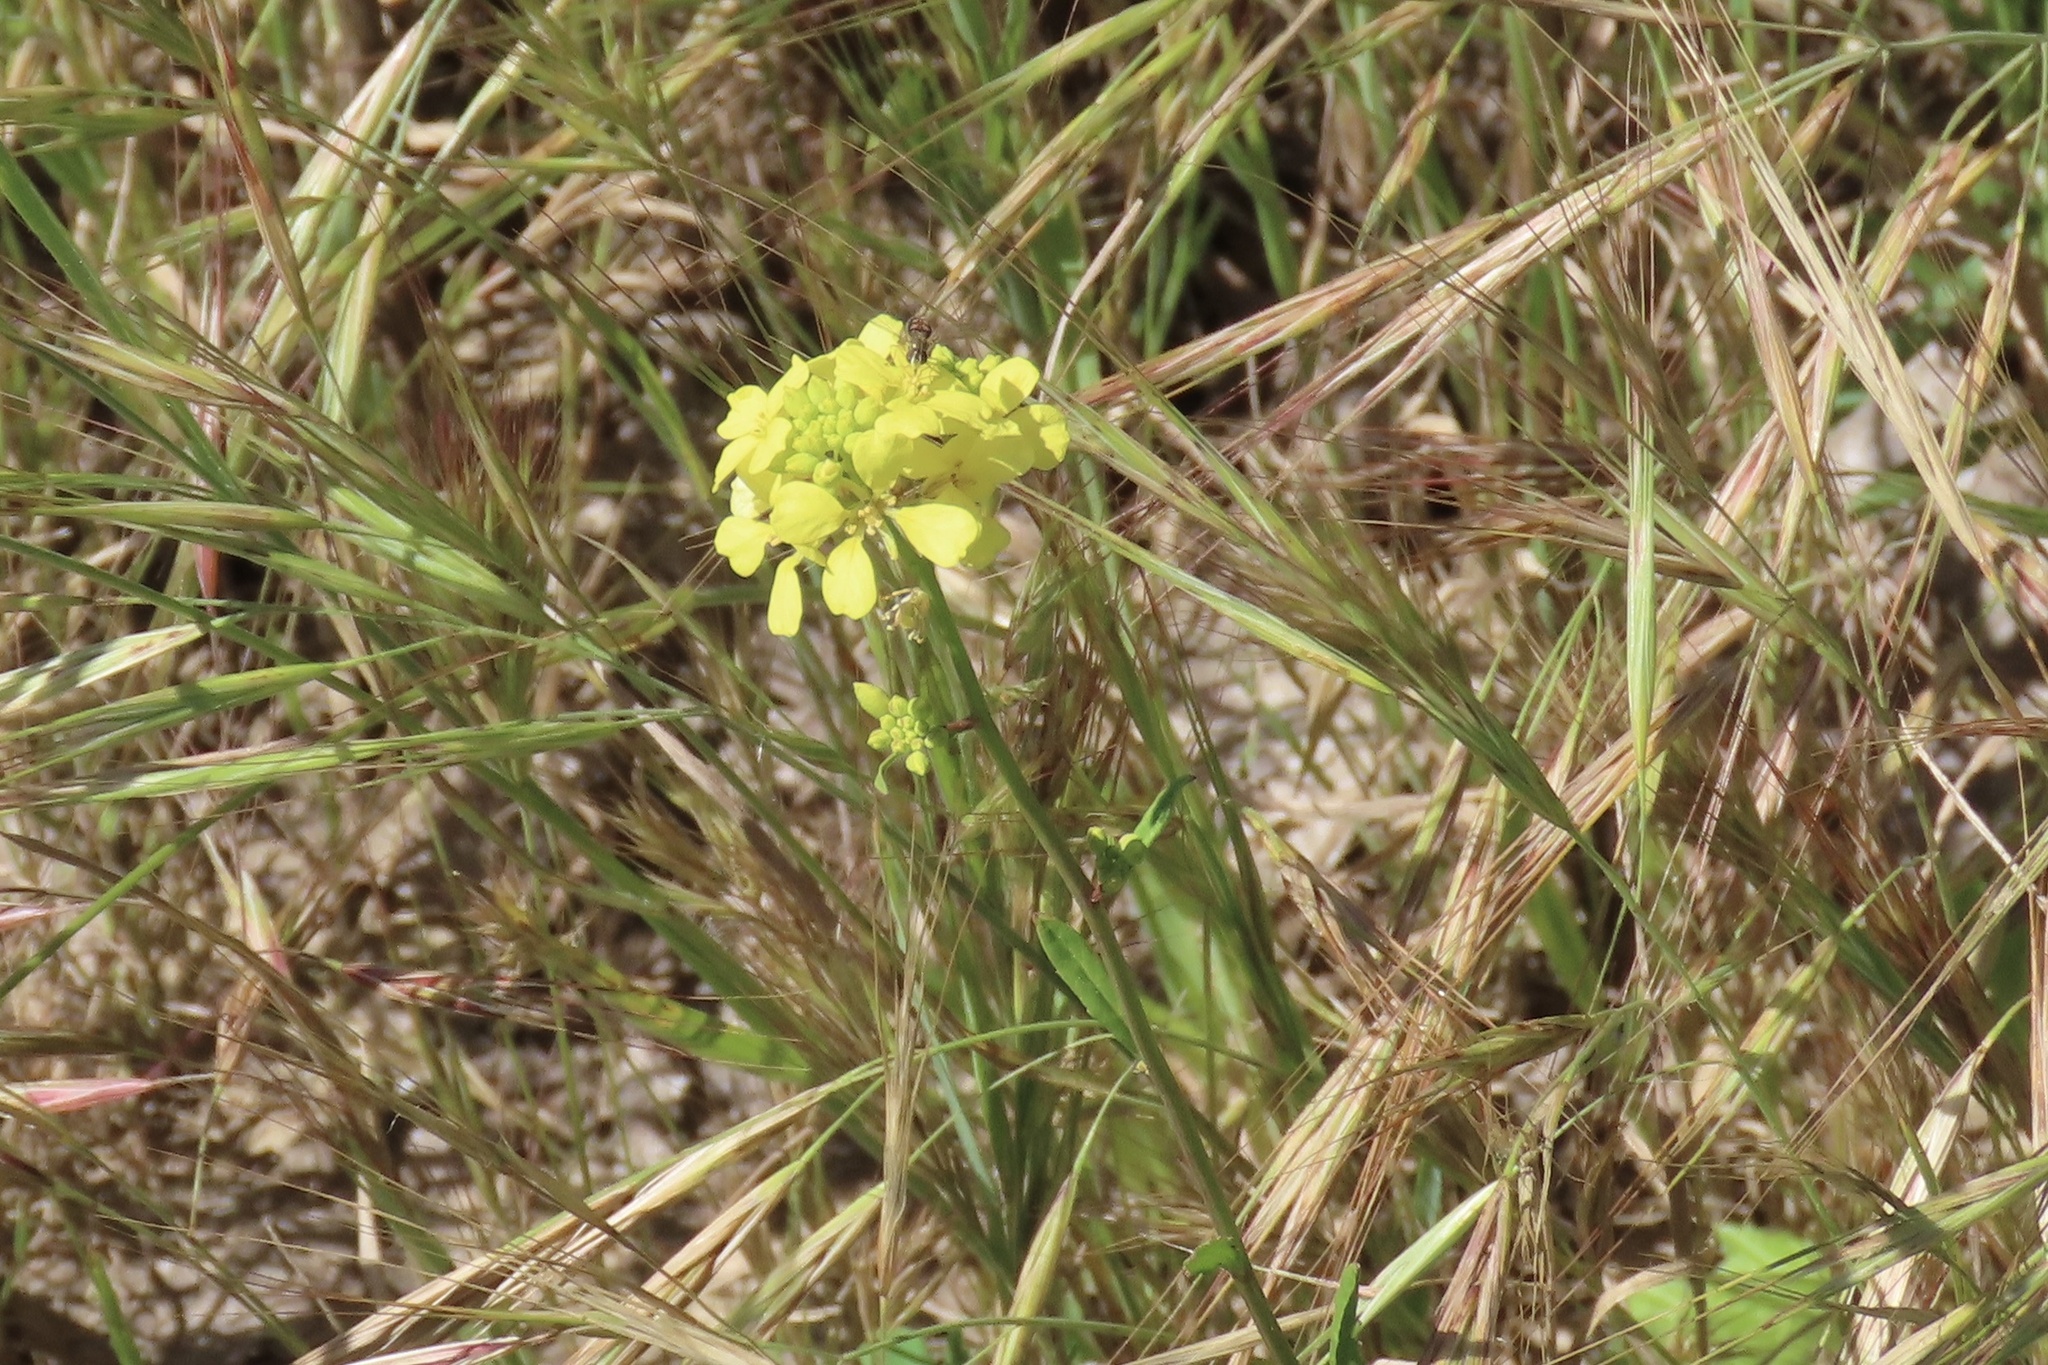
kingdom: Plantae
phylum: Tracheophyta
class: Magnoliopsida
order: Brassicales
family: Brassicaceae
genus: Hirschfeldia
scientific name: Hirschfeldia incana
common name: Hoary mustard
